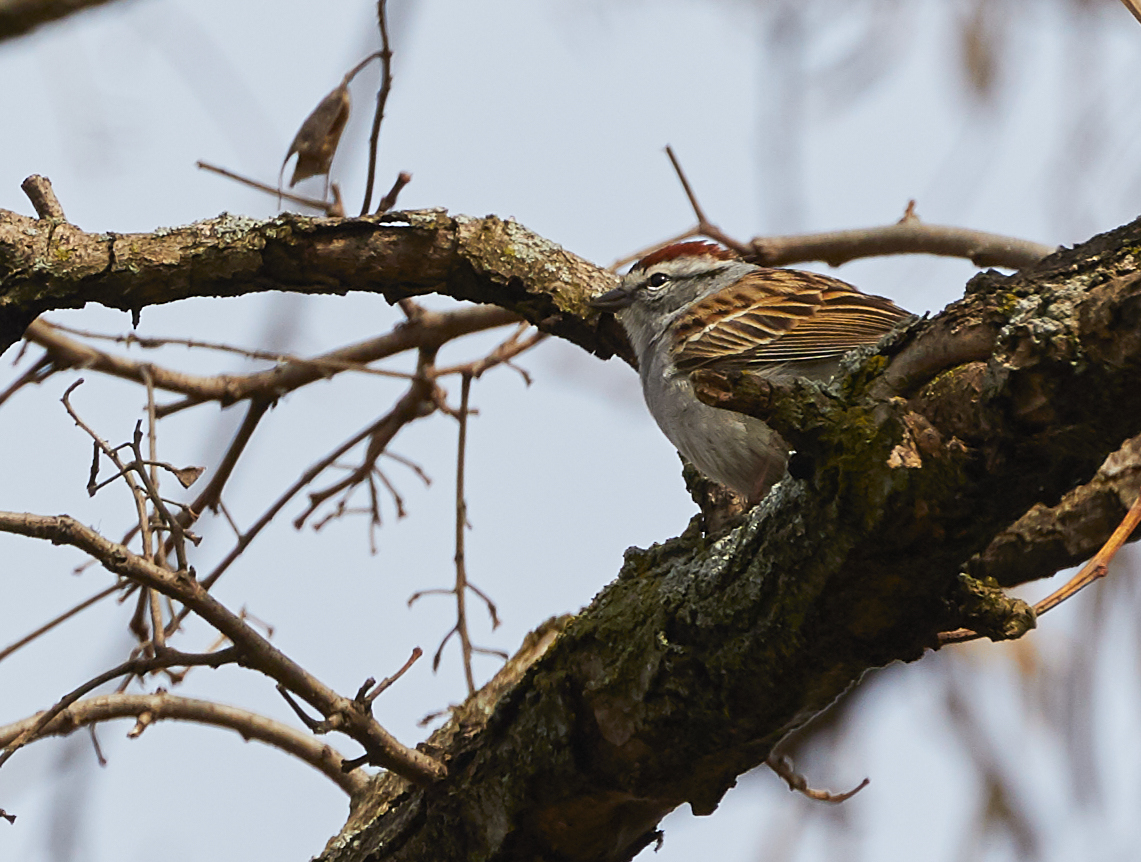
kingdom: Animalia
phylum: Chordata
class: Aves
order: Passeriformes
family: Passerellidae
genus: Spizella
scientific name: Spizella passerina
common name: Chipping sparrow
